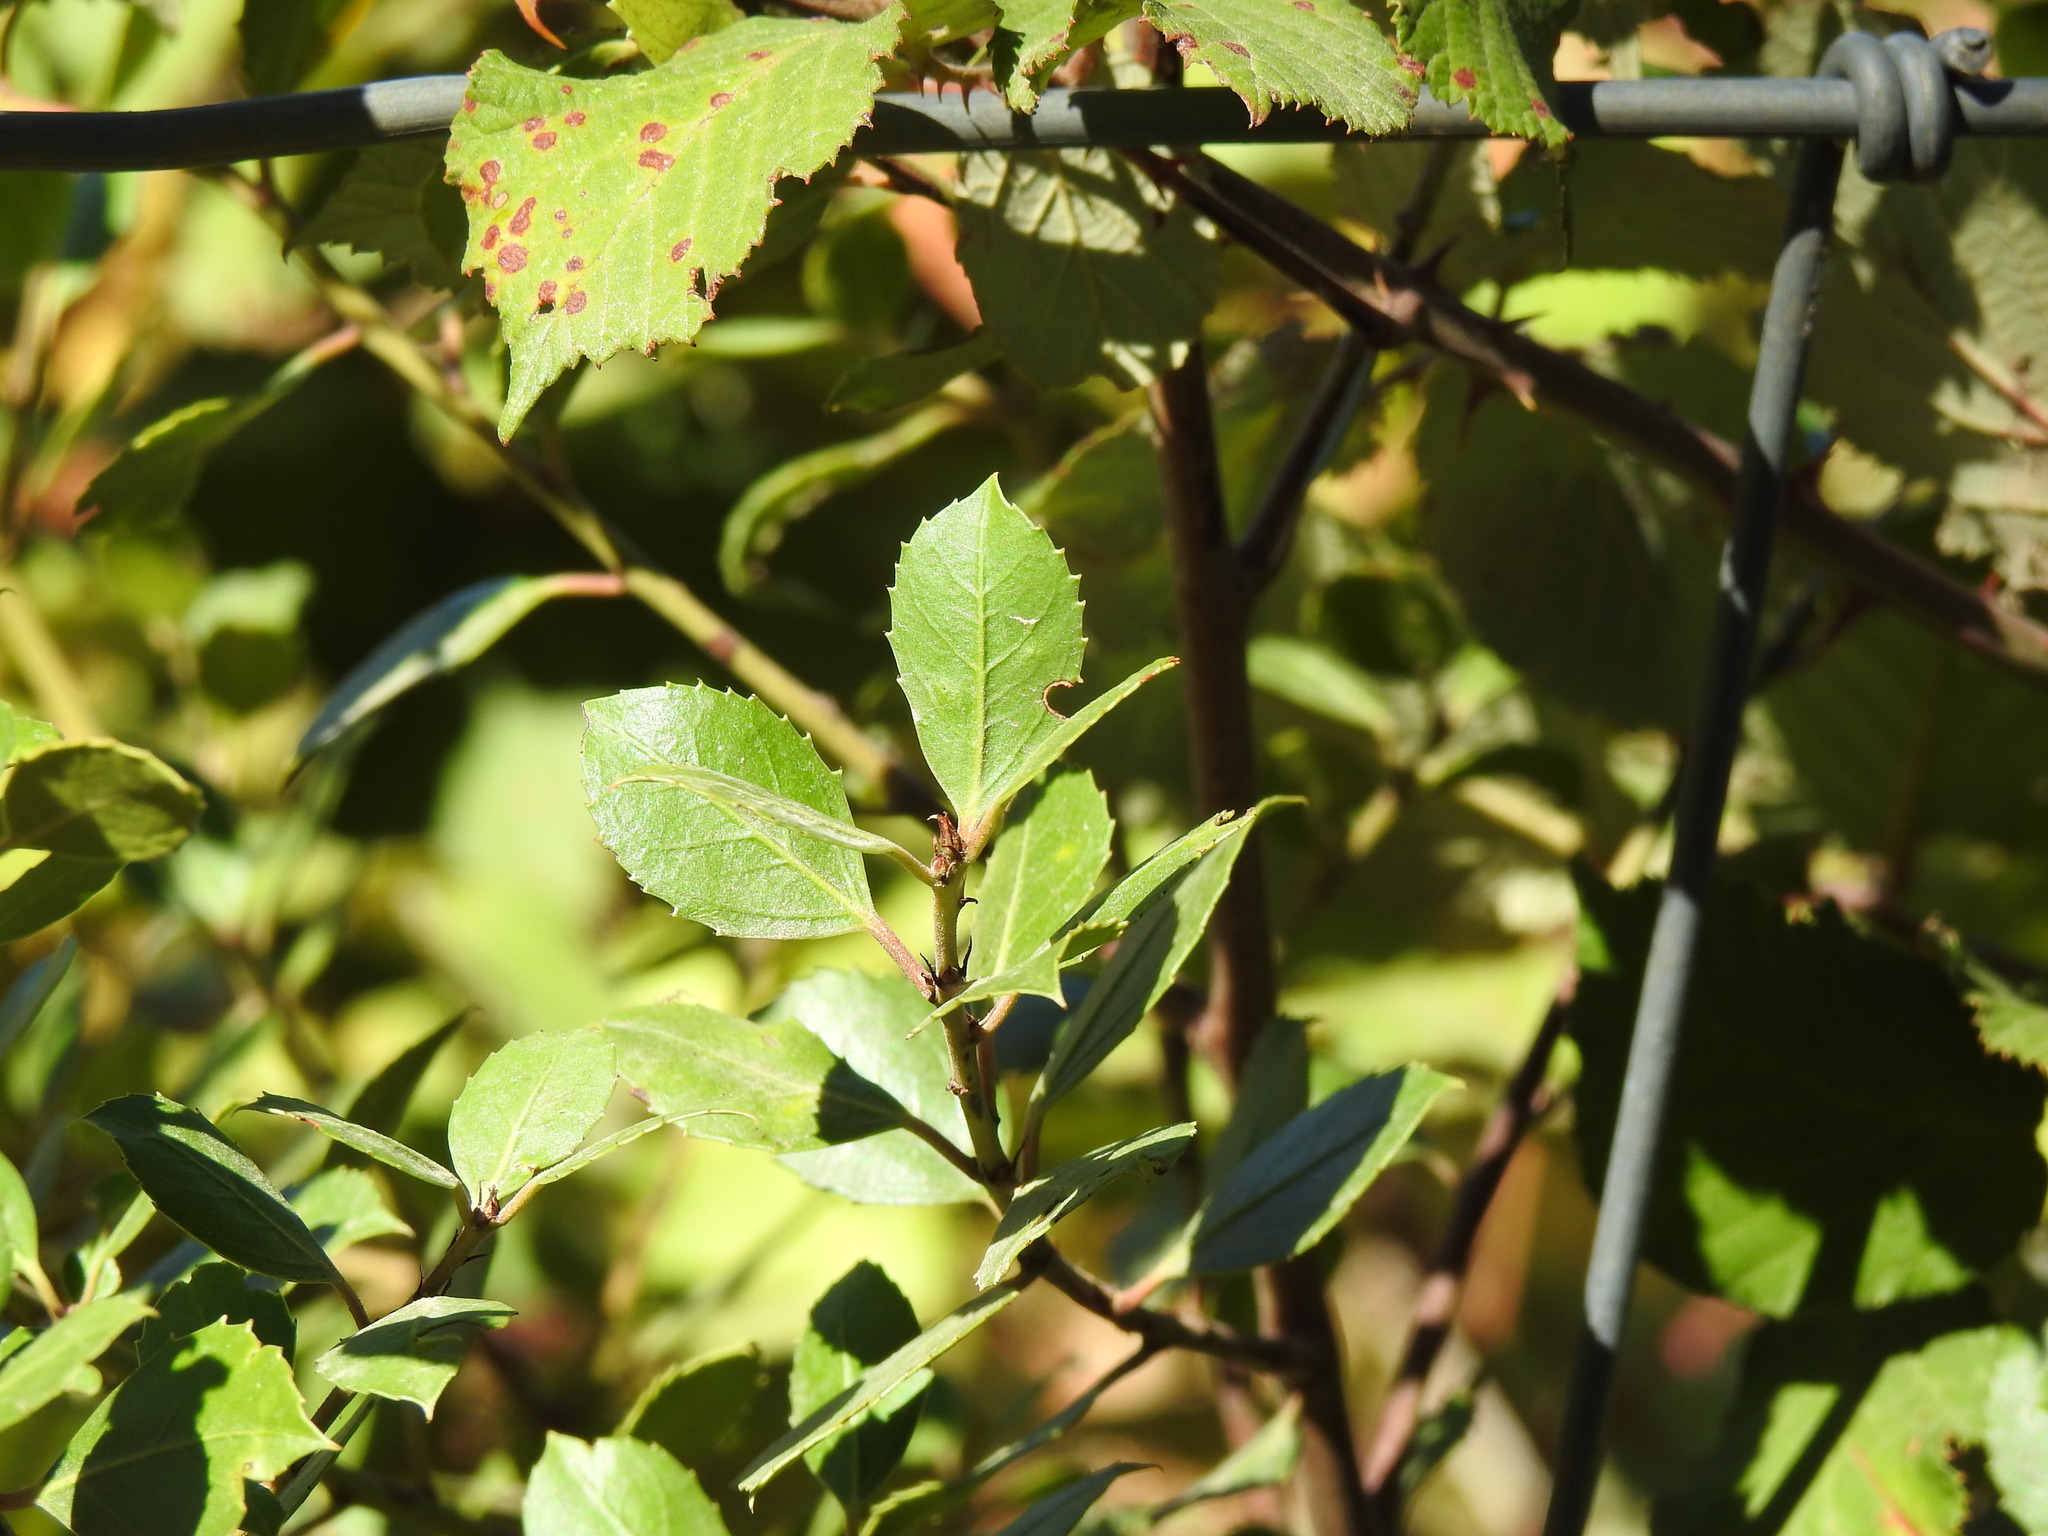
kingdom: Plantae
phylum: Tracheophyta
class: Magnoliopsida
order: Rosales
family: Rhamnaceae
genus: Rhamnus
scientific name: Rhamnus alaternus
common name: Mediterranean buckthorn
